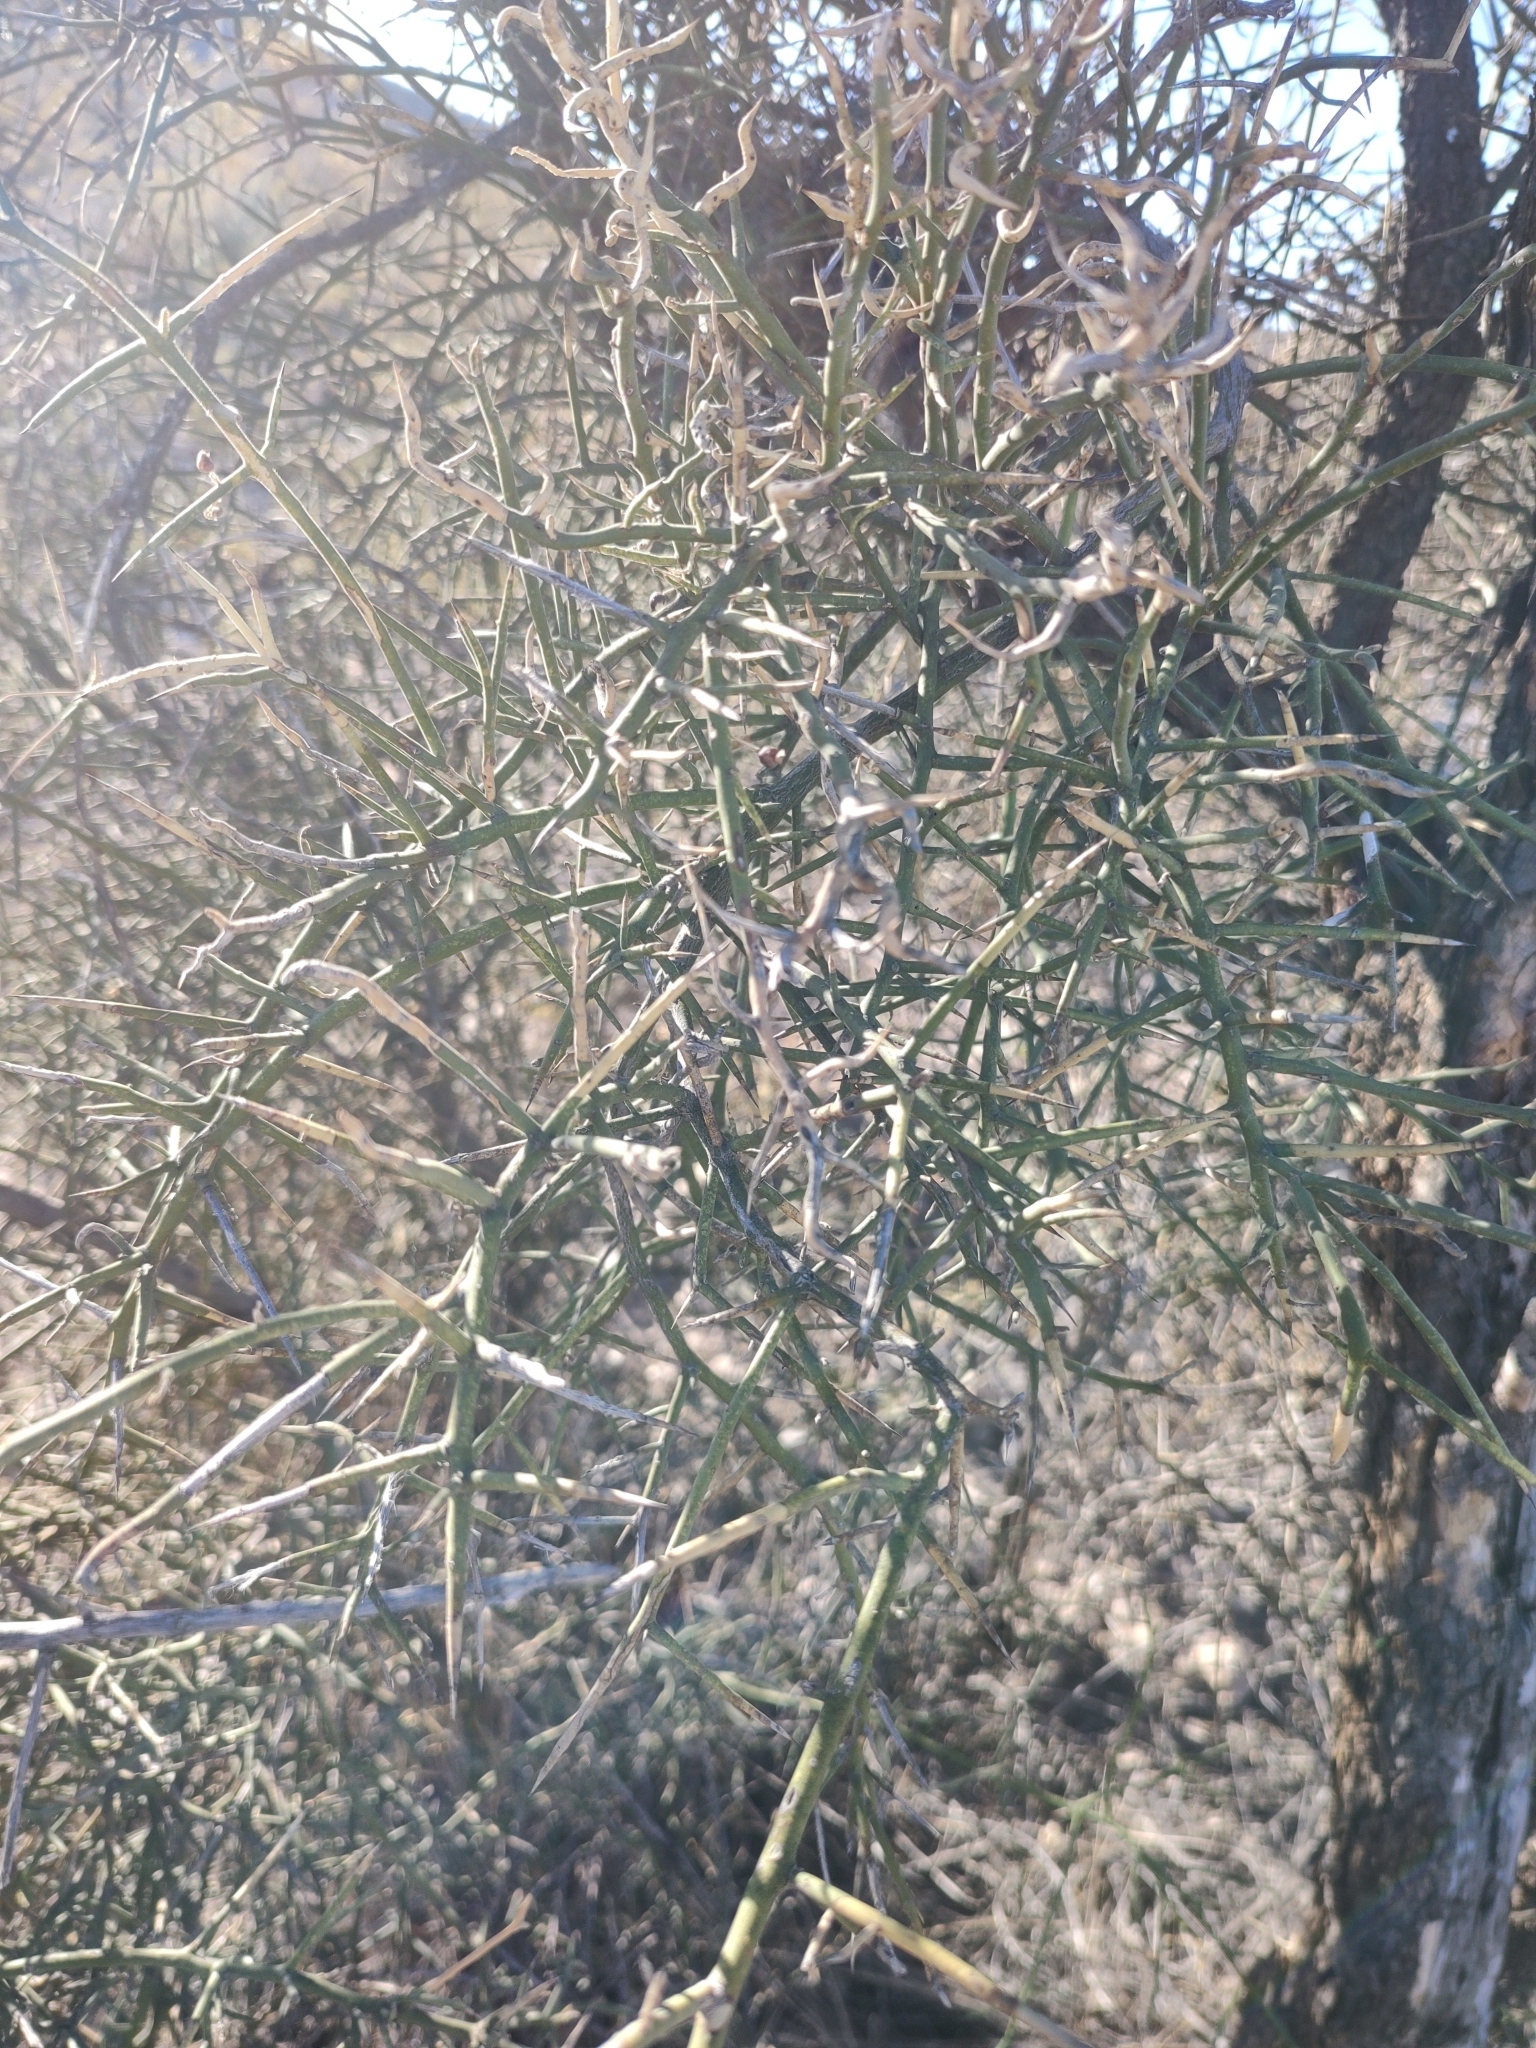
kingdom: Plantae
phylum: Tracheophyta
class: Magnoliopsida
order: Brassicales
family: Koeberliniaceae
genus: Koeberlinia
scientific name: Koeberlinia spinosa
